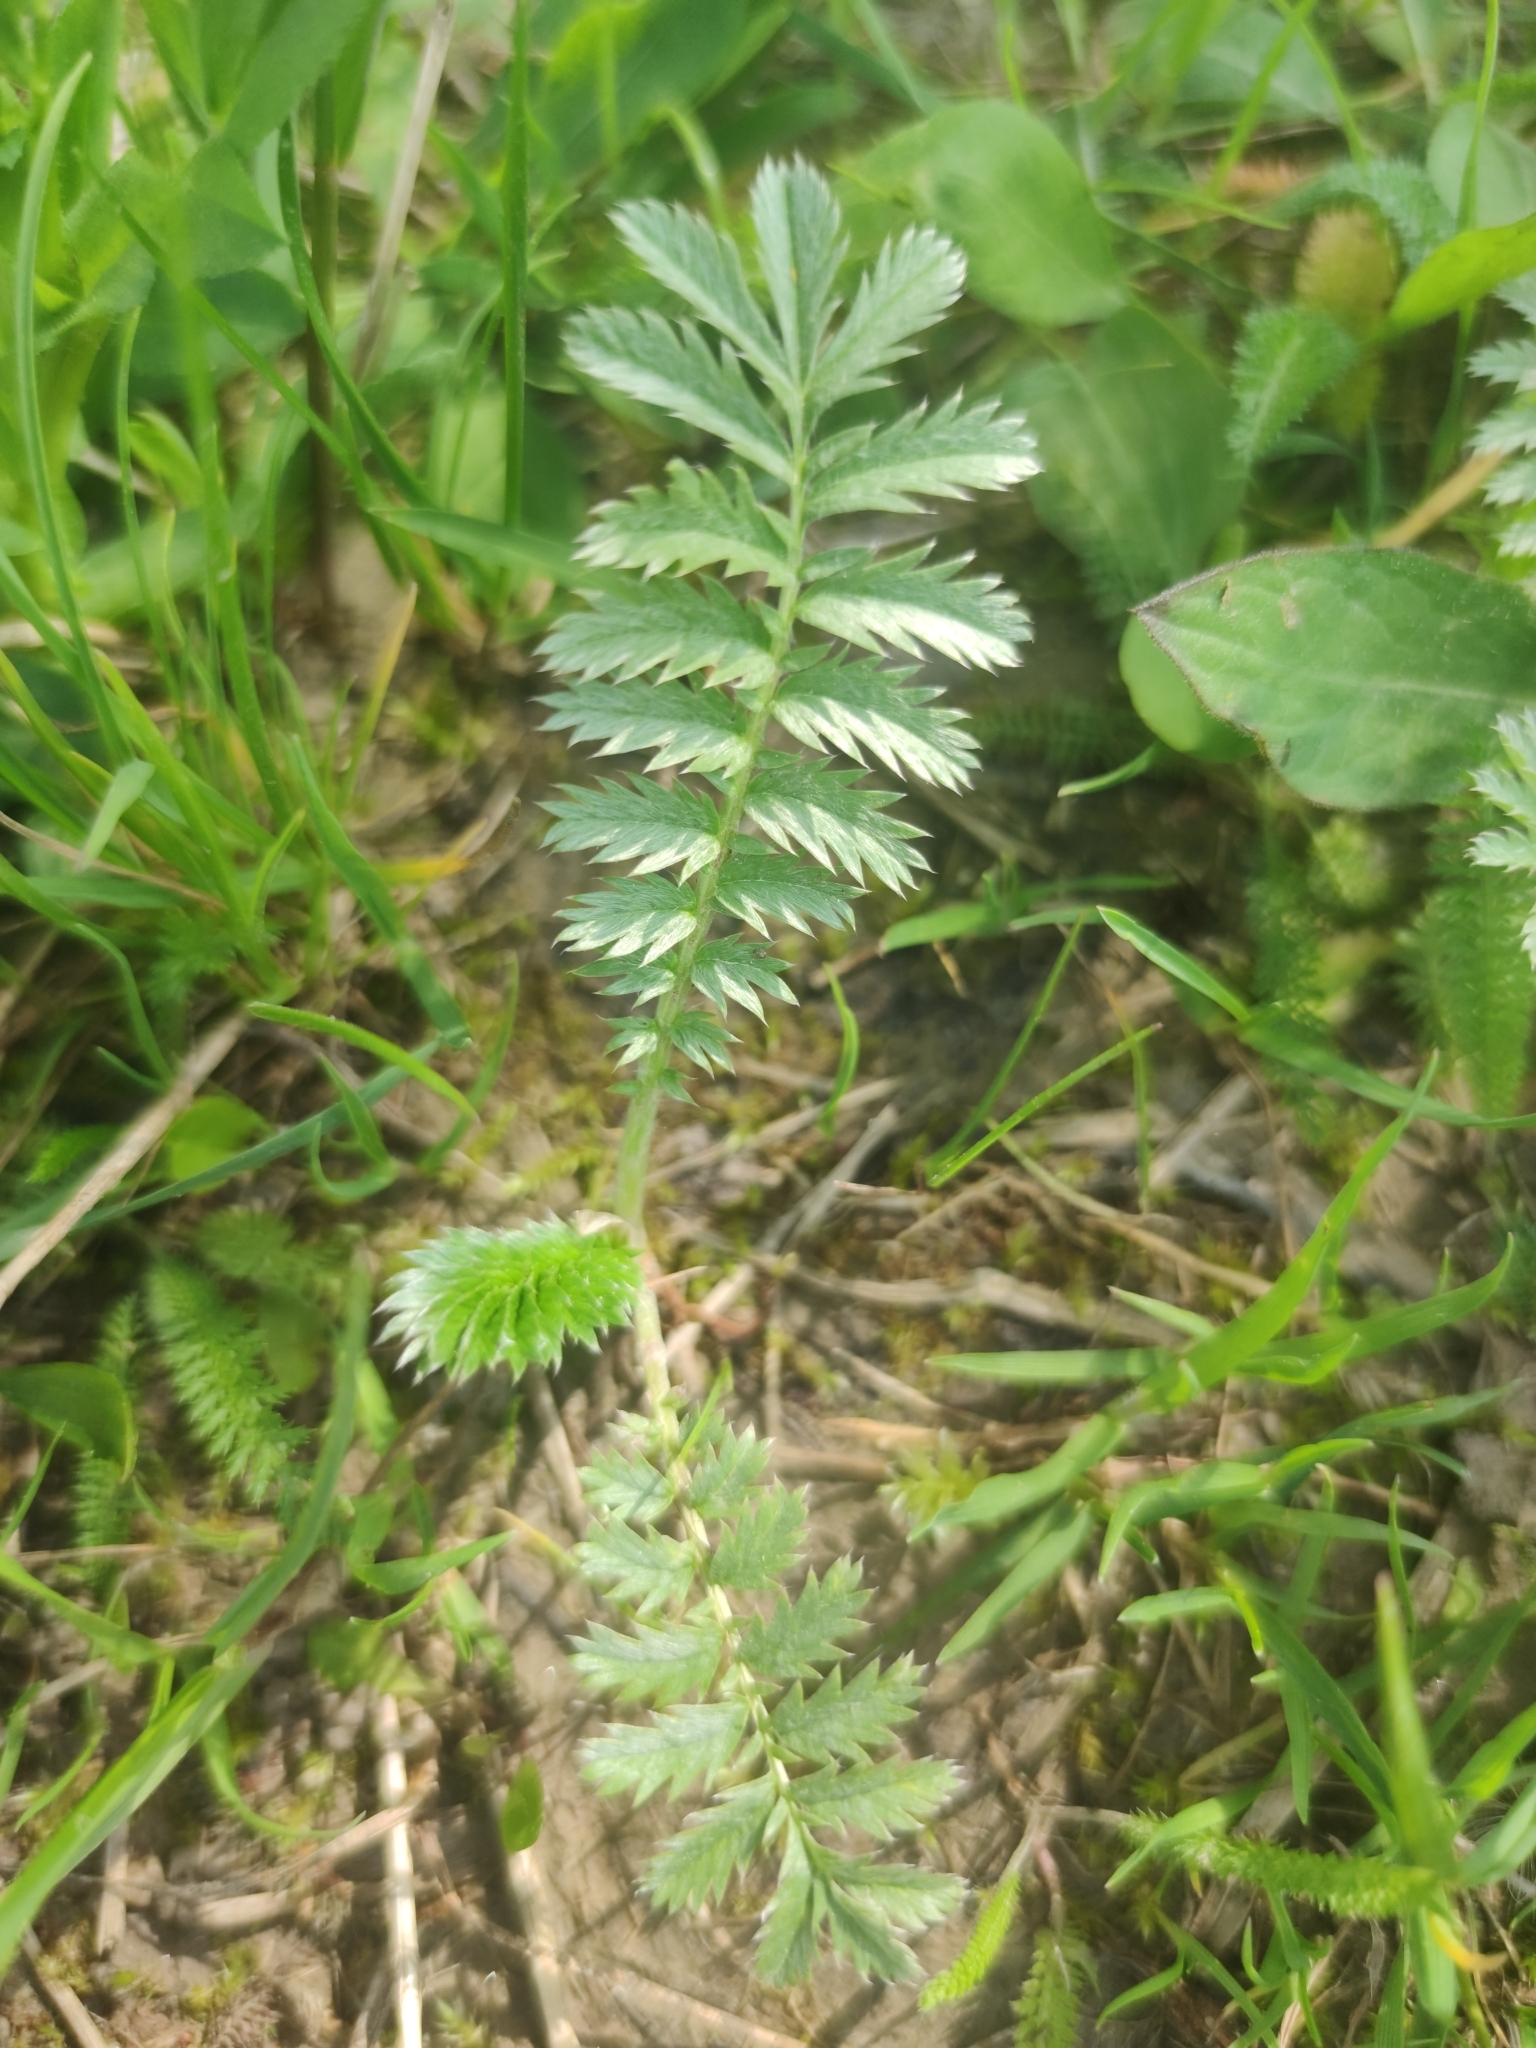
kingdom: Plantae
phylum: Tracheophyta
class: Magnoliopsida
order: Rosales
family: Rosaceae
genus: Argentina
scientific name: Argentina anserina
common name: Common silverweed
